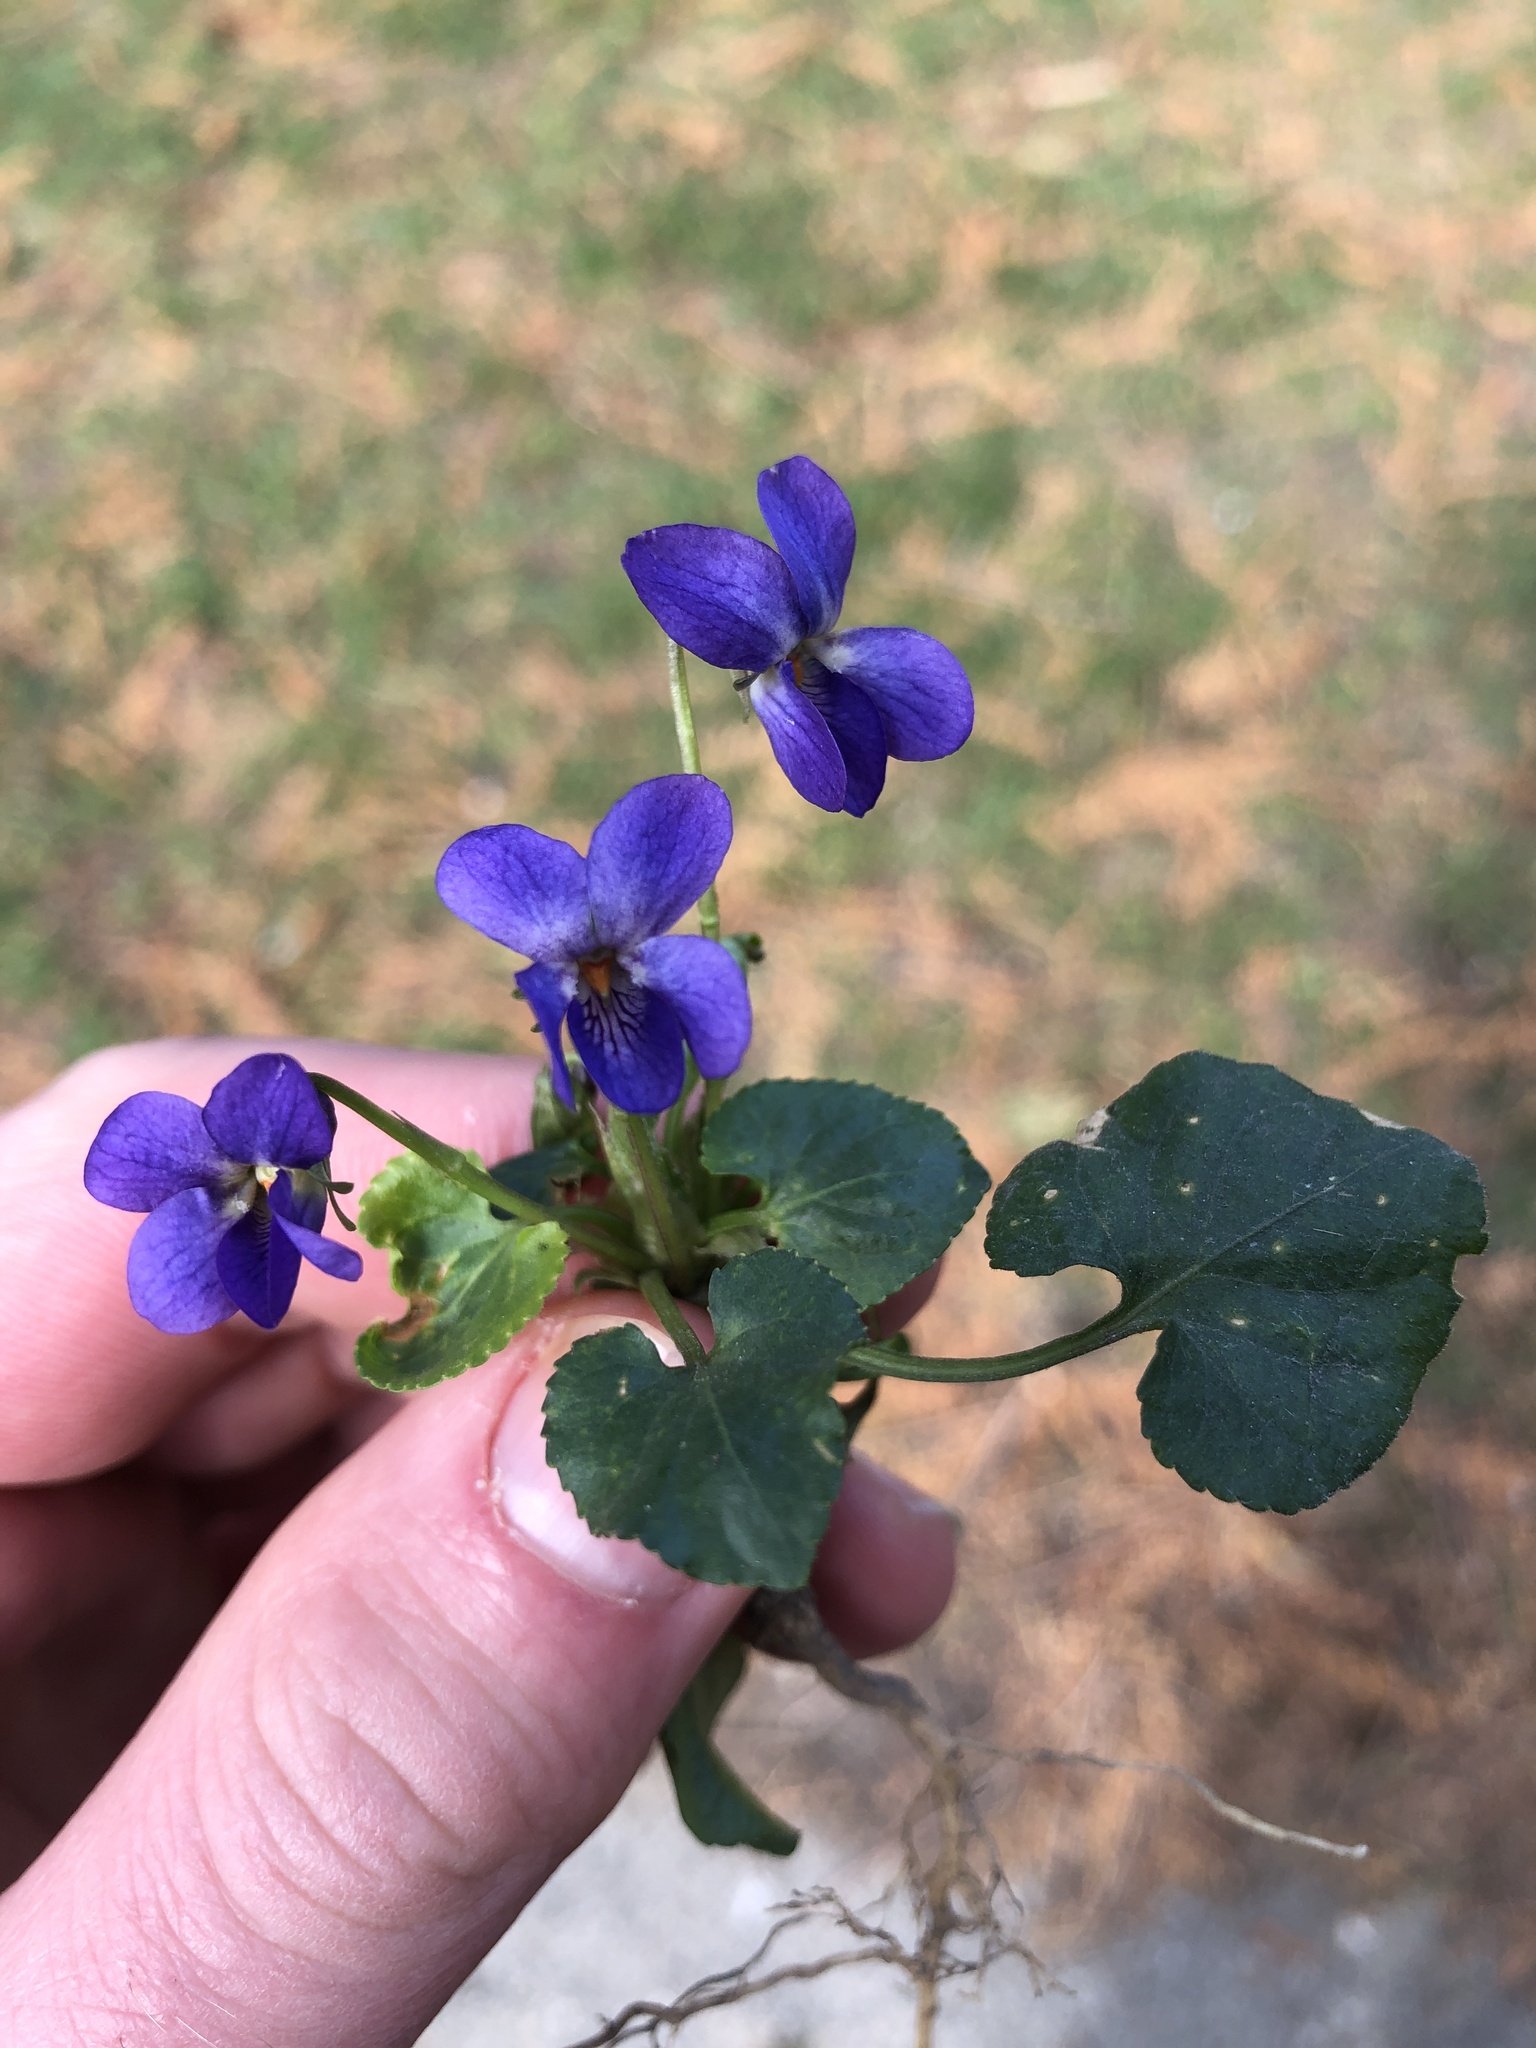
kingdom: Plantae
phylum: Tracheophyta
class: Magnoliopsida
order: Malpighiales
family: Violaceae
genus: Viola
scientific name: Viola odorata
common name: Sweet violet
